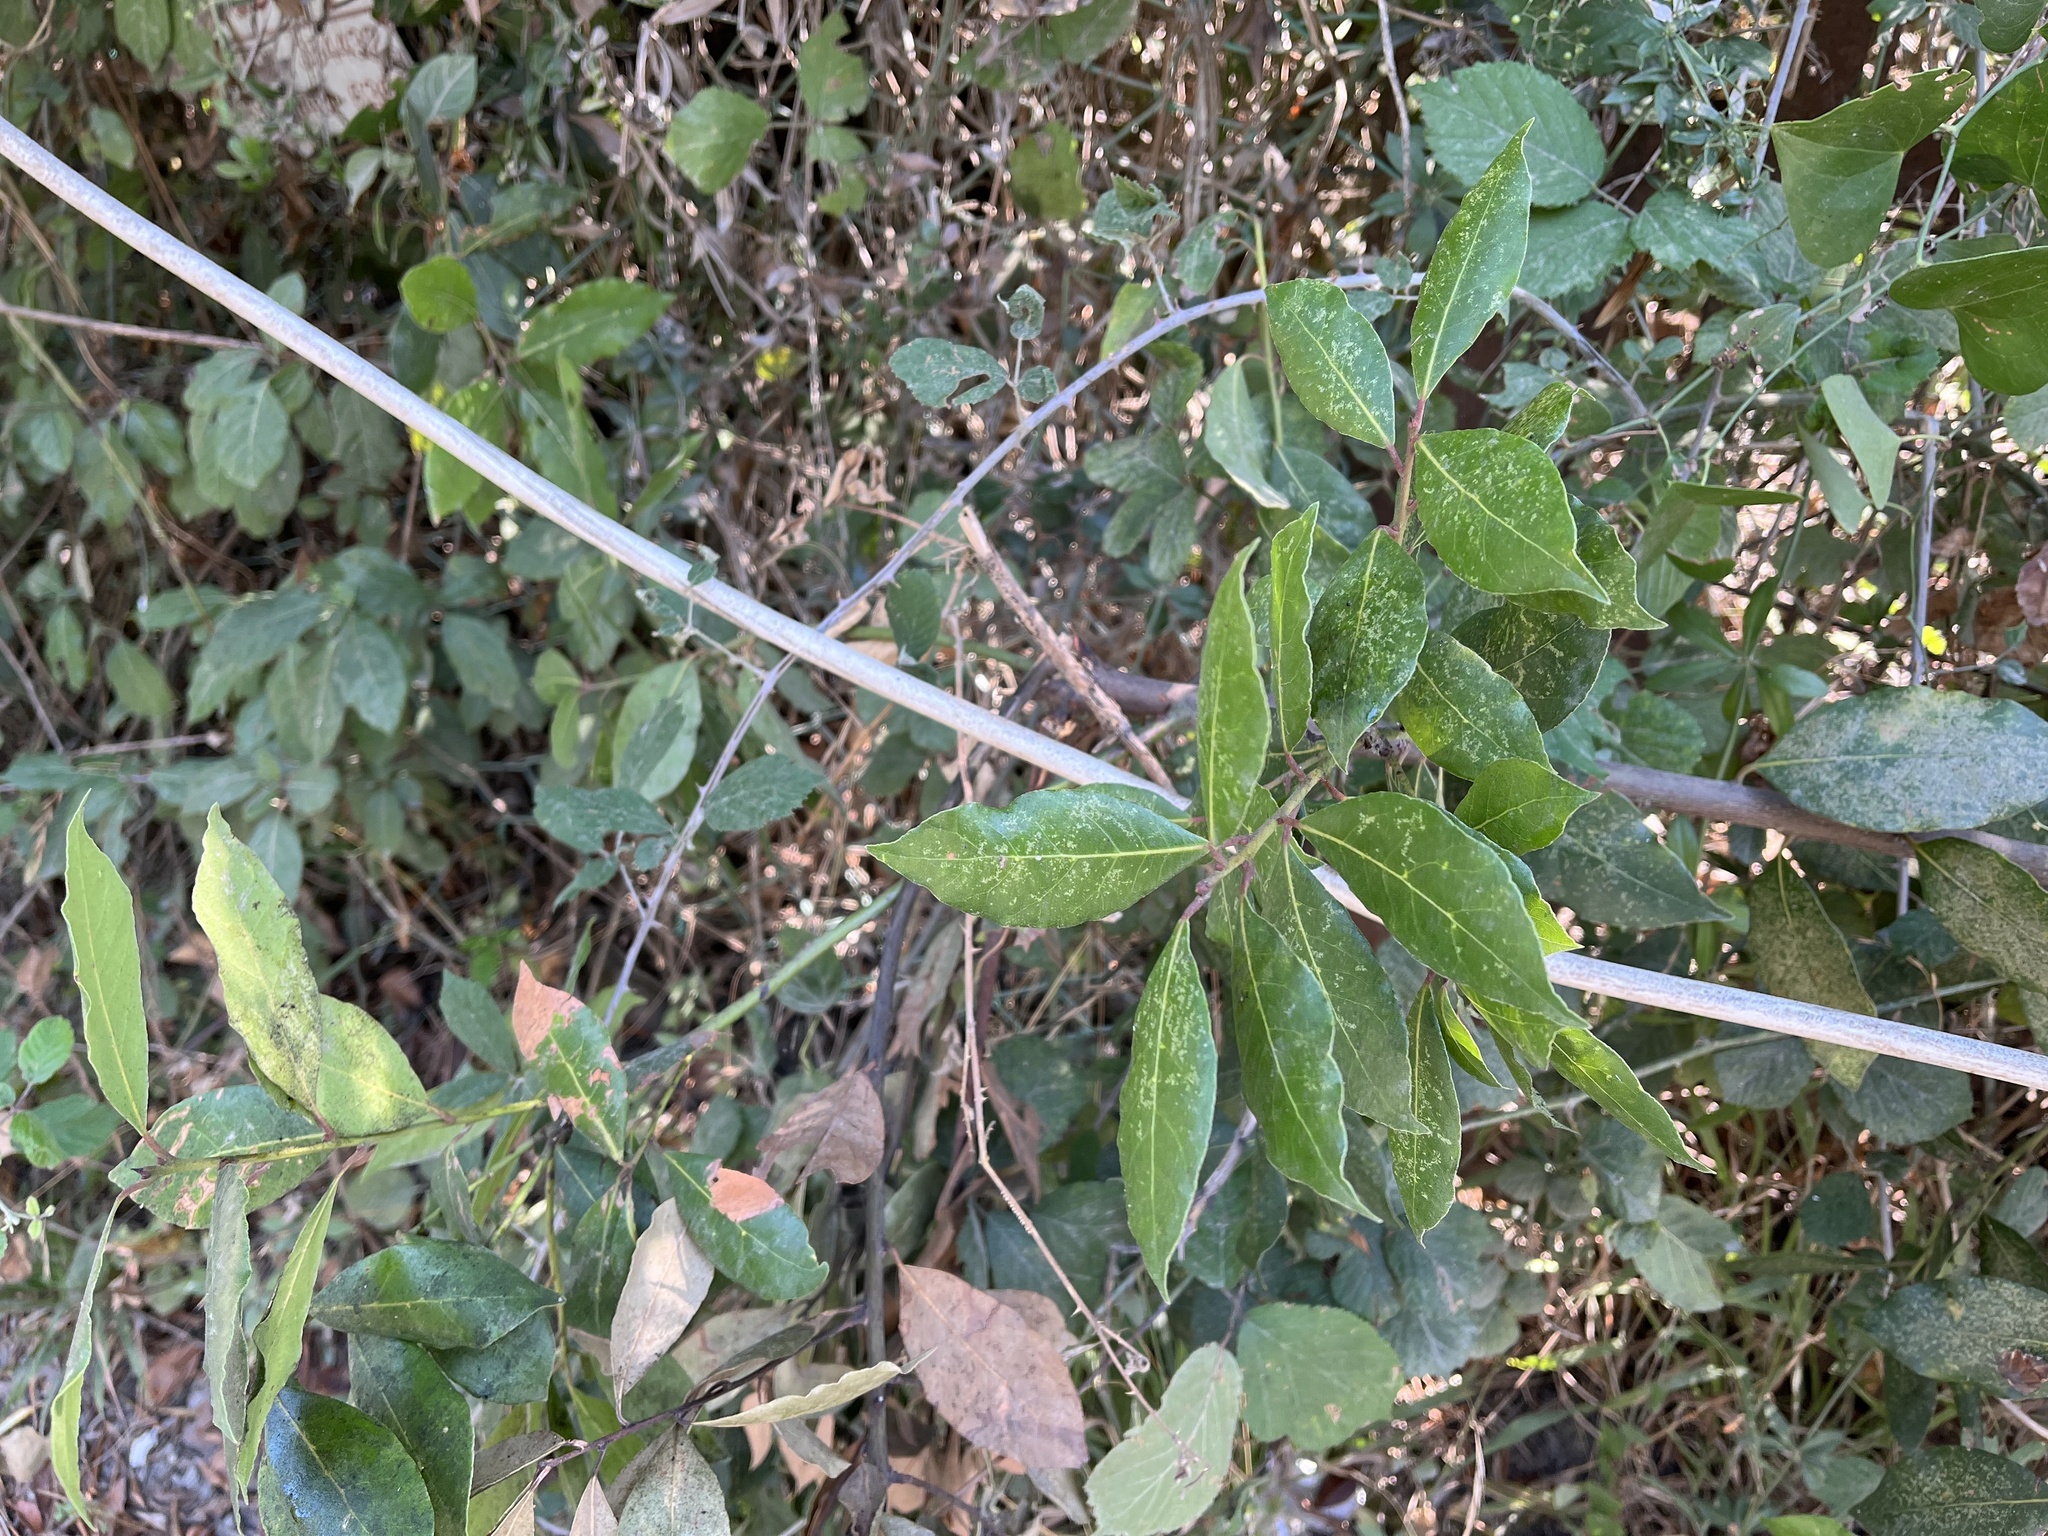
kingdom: Plantae
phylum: Tracheophyta
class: Magnoliopsida
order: Laurales
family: Lauraceae
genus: Laurus
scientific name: Laurus nobilis
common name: Bay
